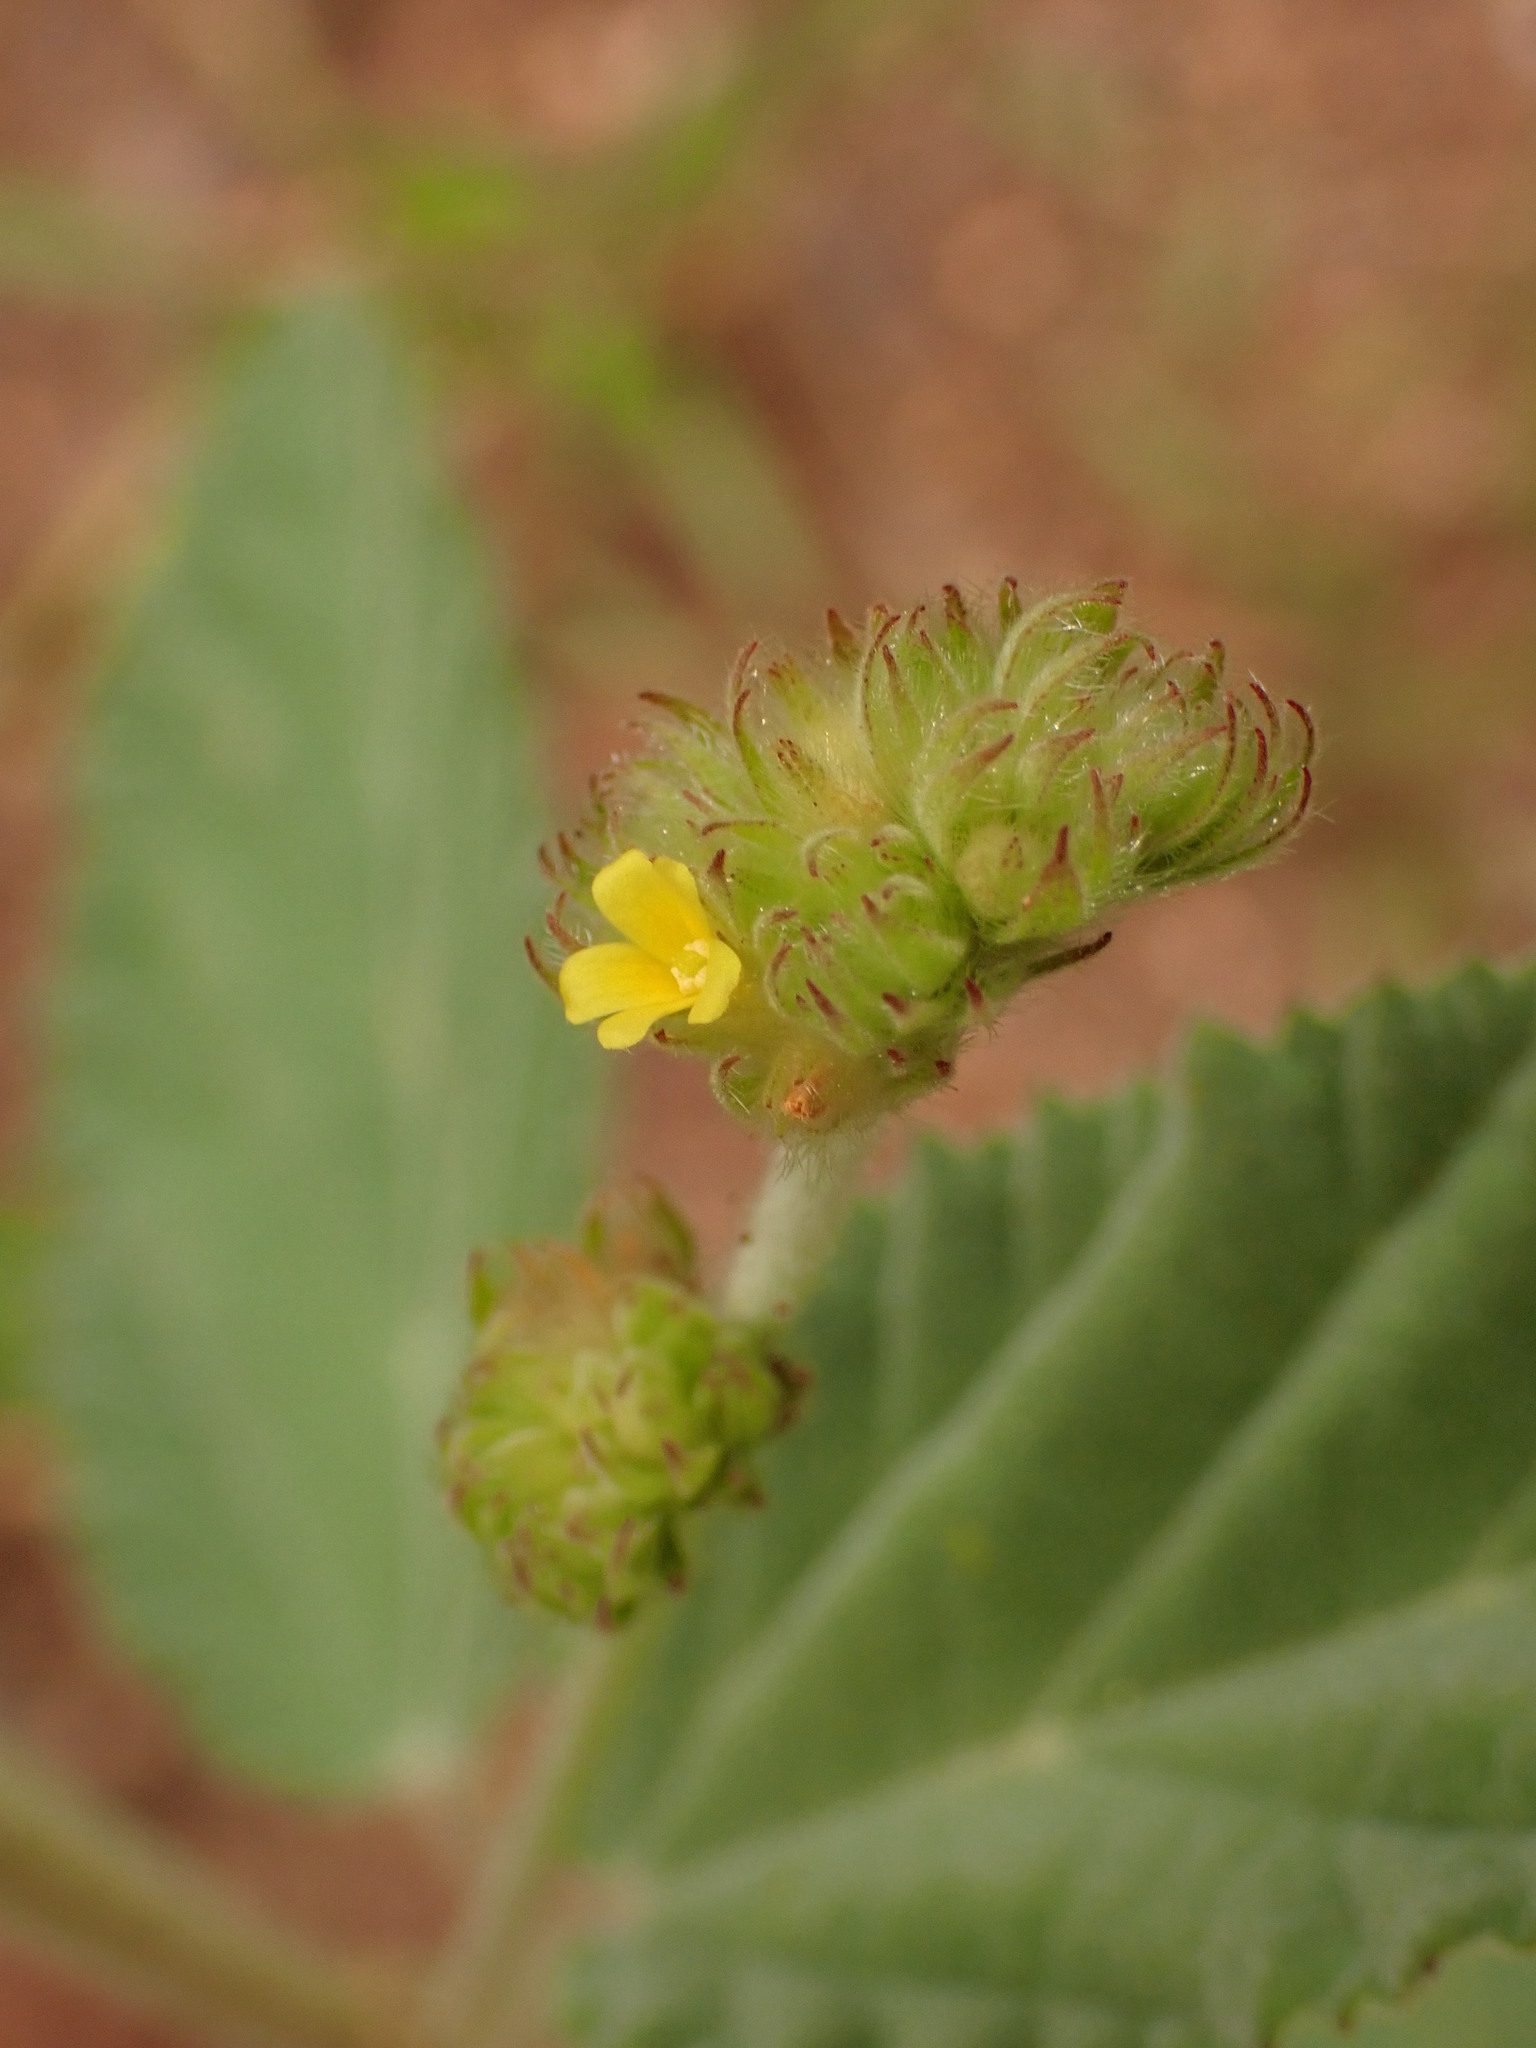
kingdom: Plantae
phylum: Tracheophyta
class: Magnoliopsida
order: Malvales
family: Malvaceae
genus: Waltheria
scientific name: Waltheria indica
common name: Leather-coat
